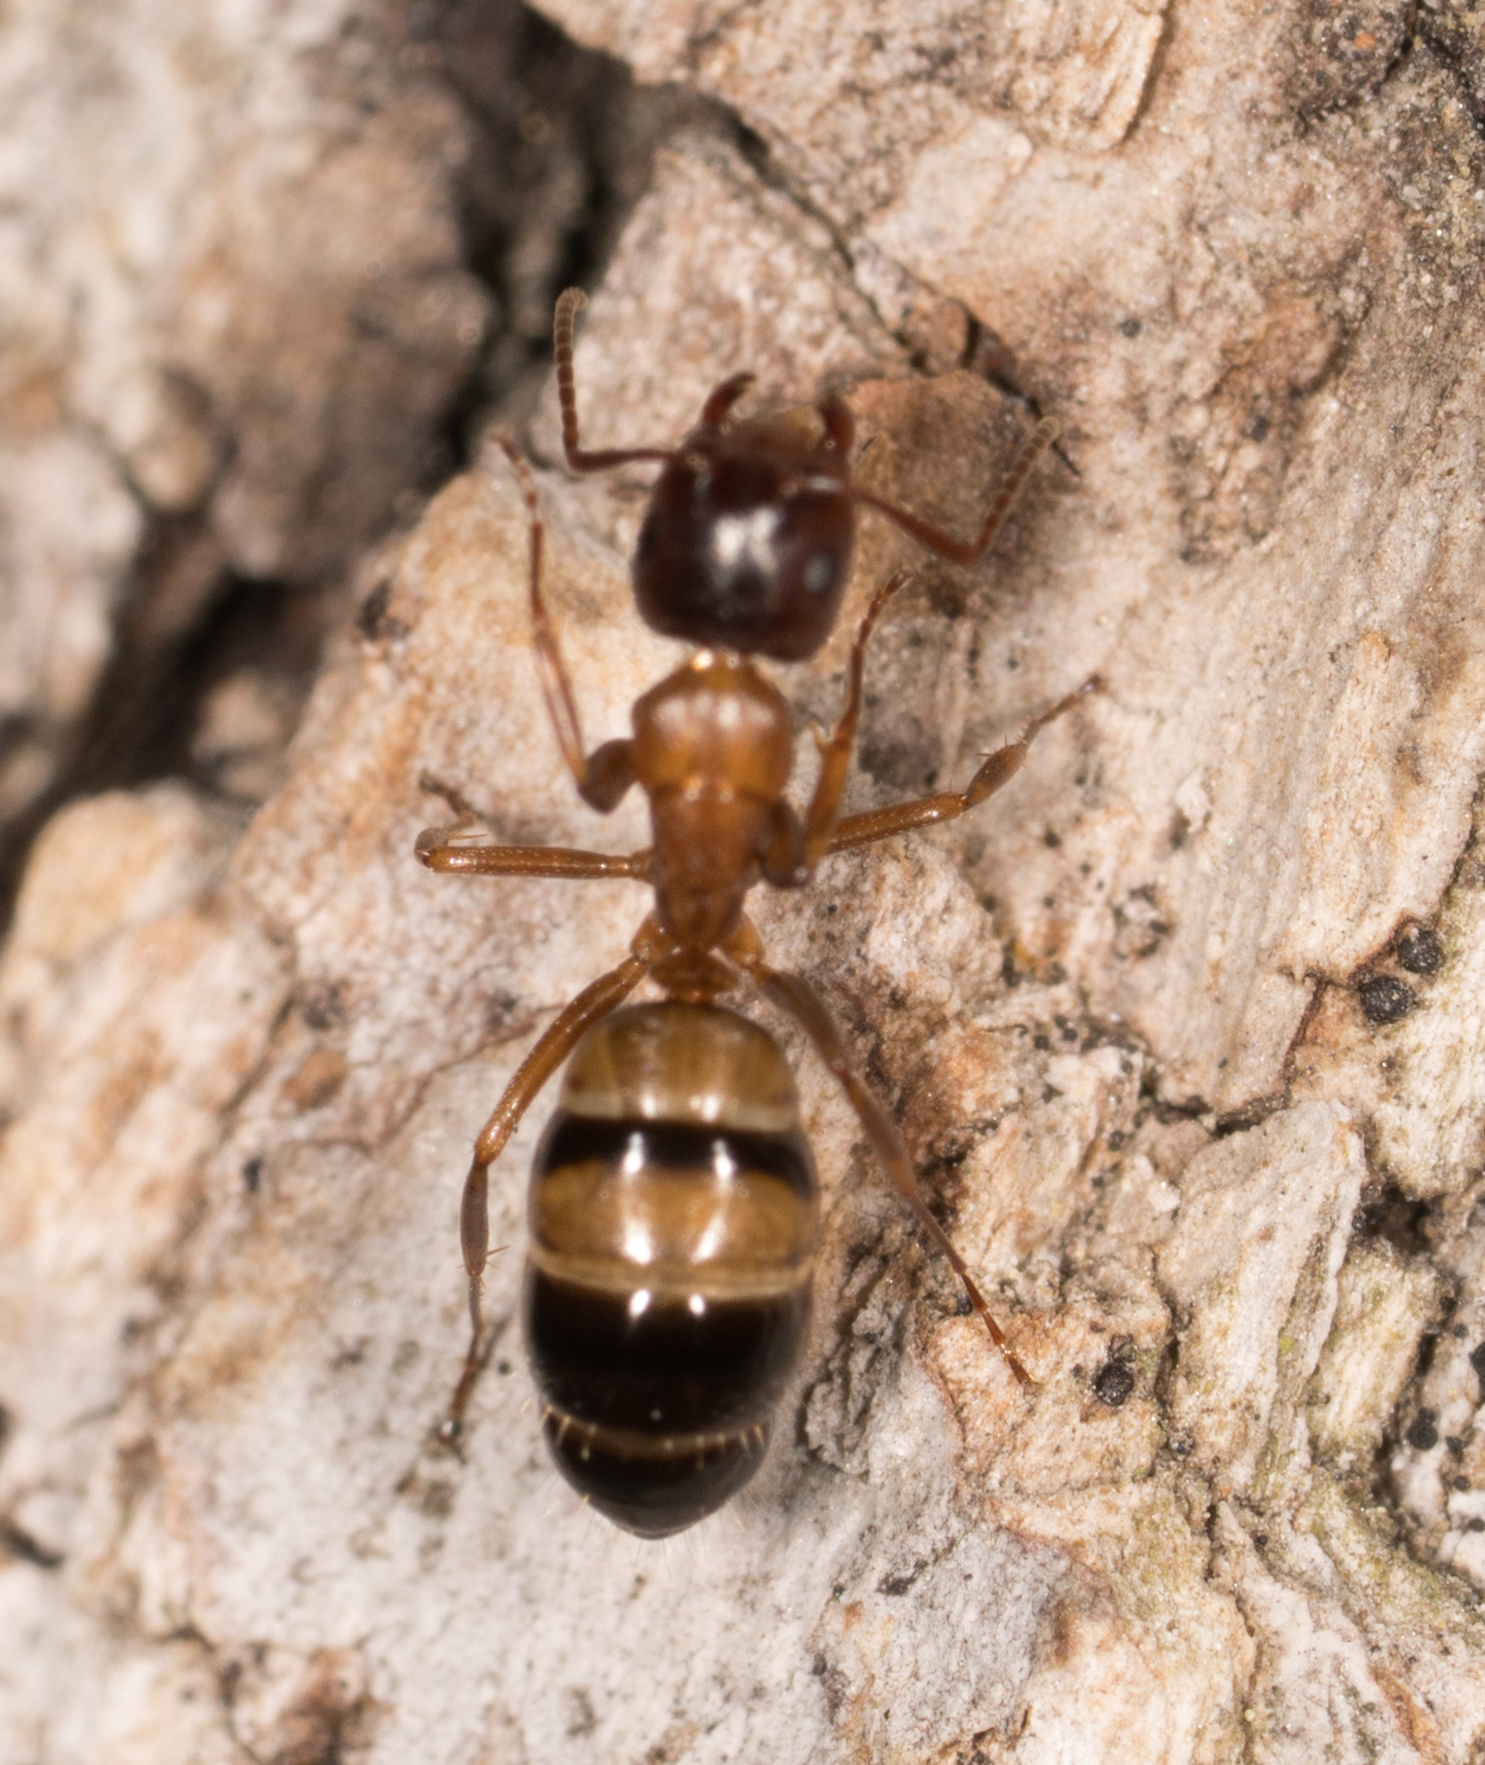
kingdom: Animalia
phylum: Arthropoda
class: Insecta
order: Hymenoptera
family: Formicidae
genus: Camponotus
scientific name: Camponotus essigi
